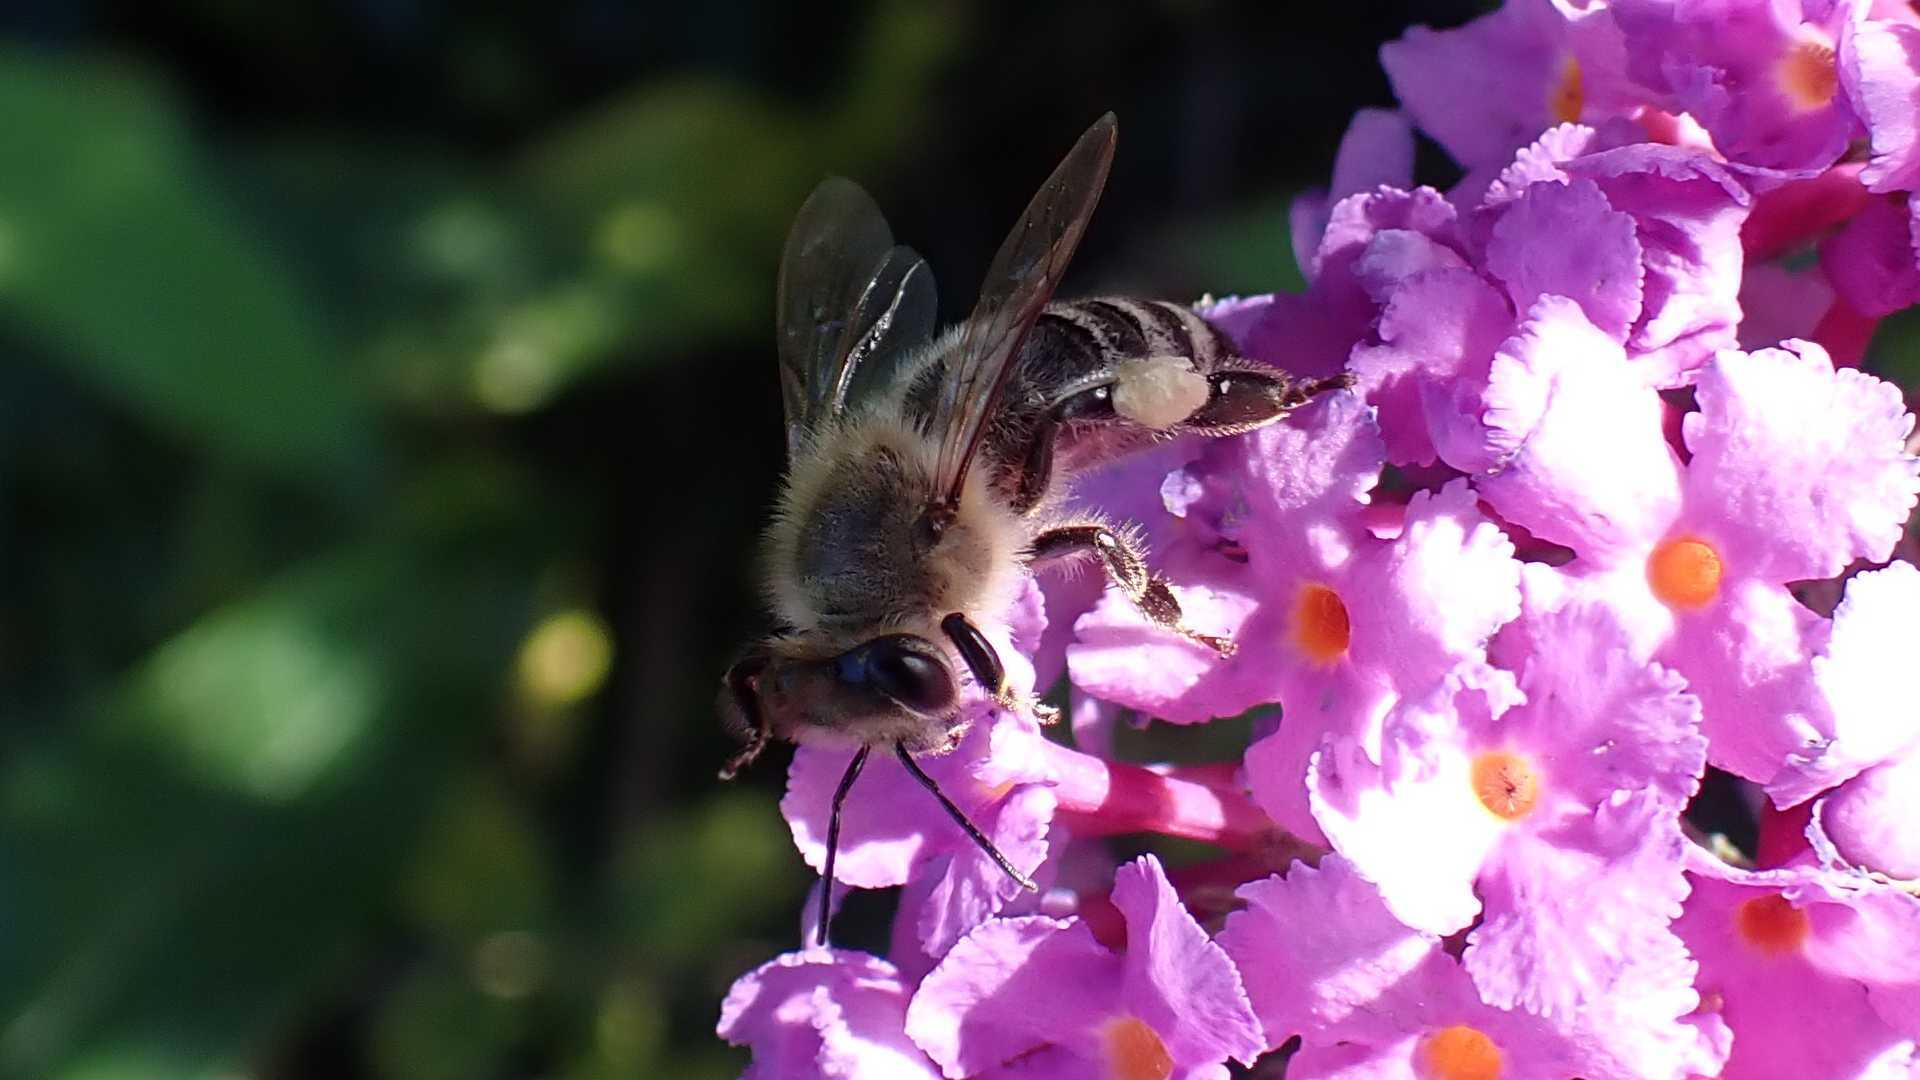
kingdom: Animalia
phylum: Arthropoda
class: Insecta
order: Hymenoptera
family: Apidae
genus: Apis
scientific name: Apis mellifera
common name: Honey bee
